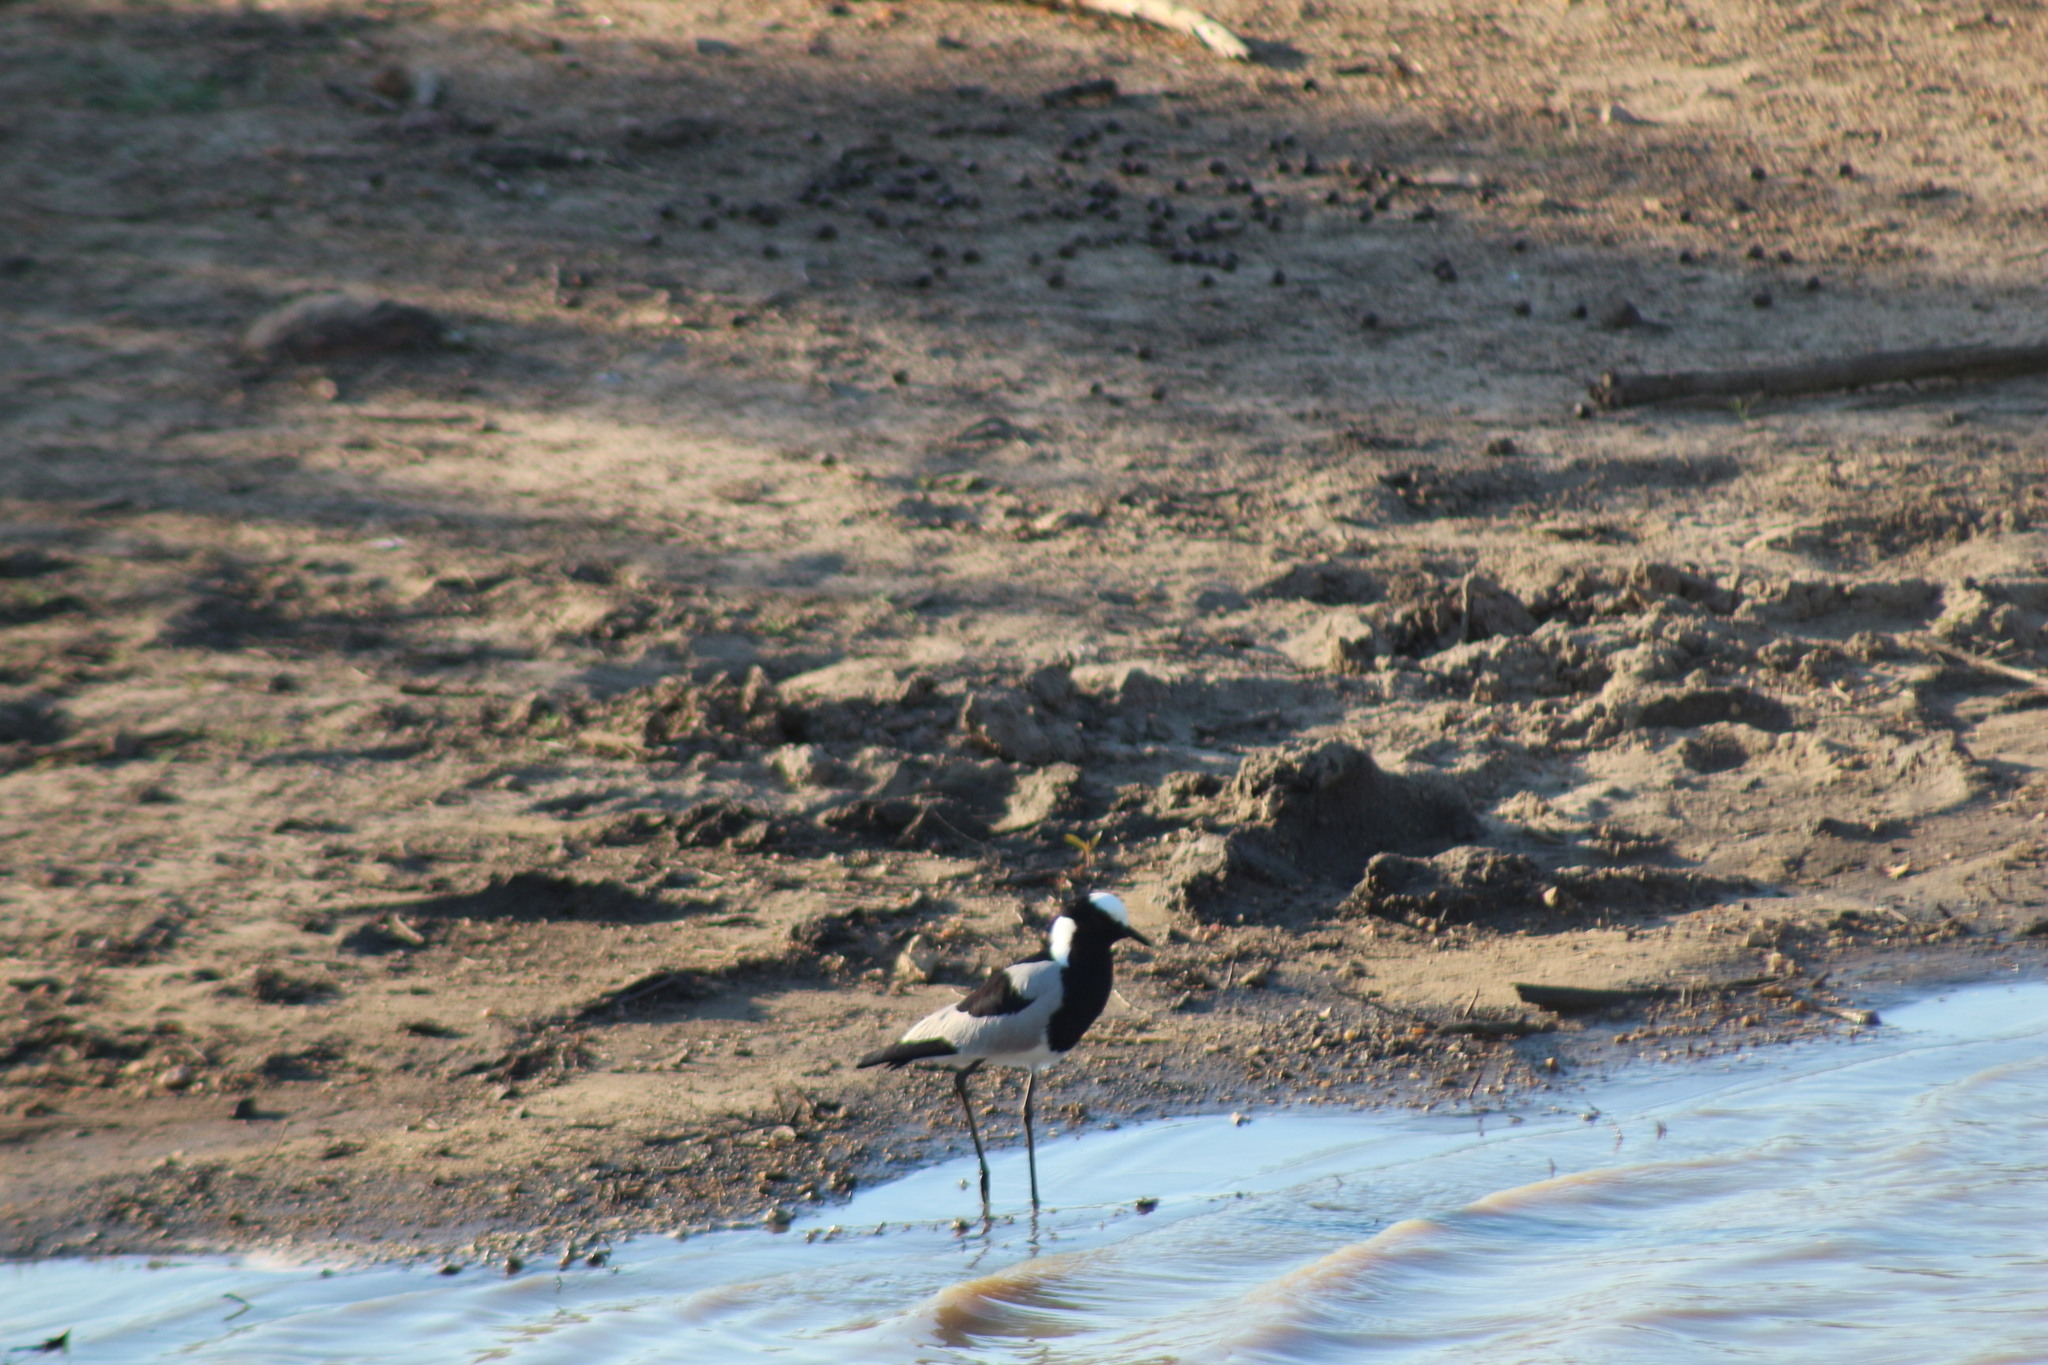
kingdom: Animalia
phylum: Chordata
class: Aves
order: Charadriiformes
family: Charadriidae
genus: Vanellus
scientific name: Vanellus armatus
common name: Blacksmith lapwing
